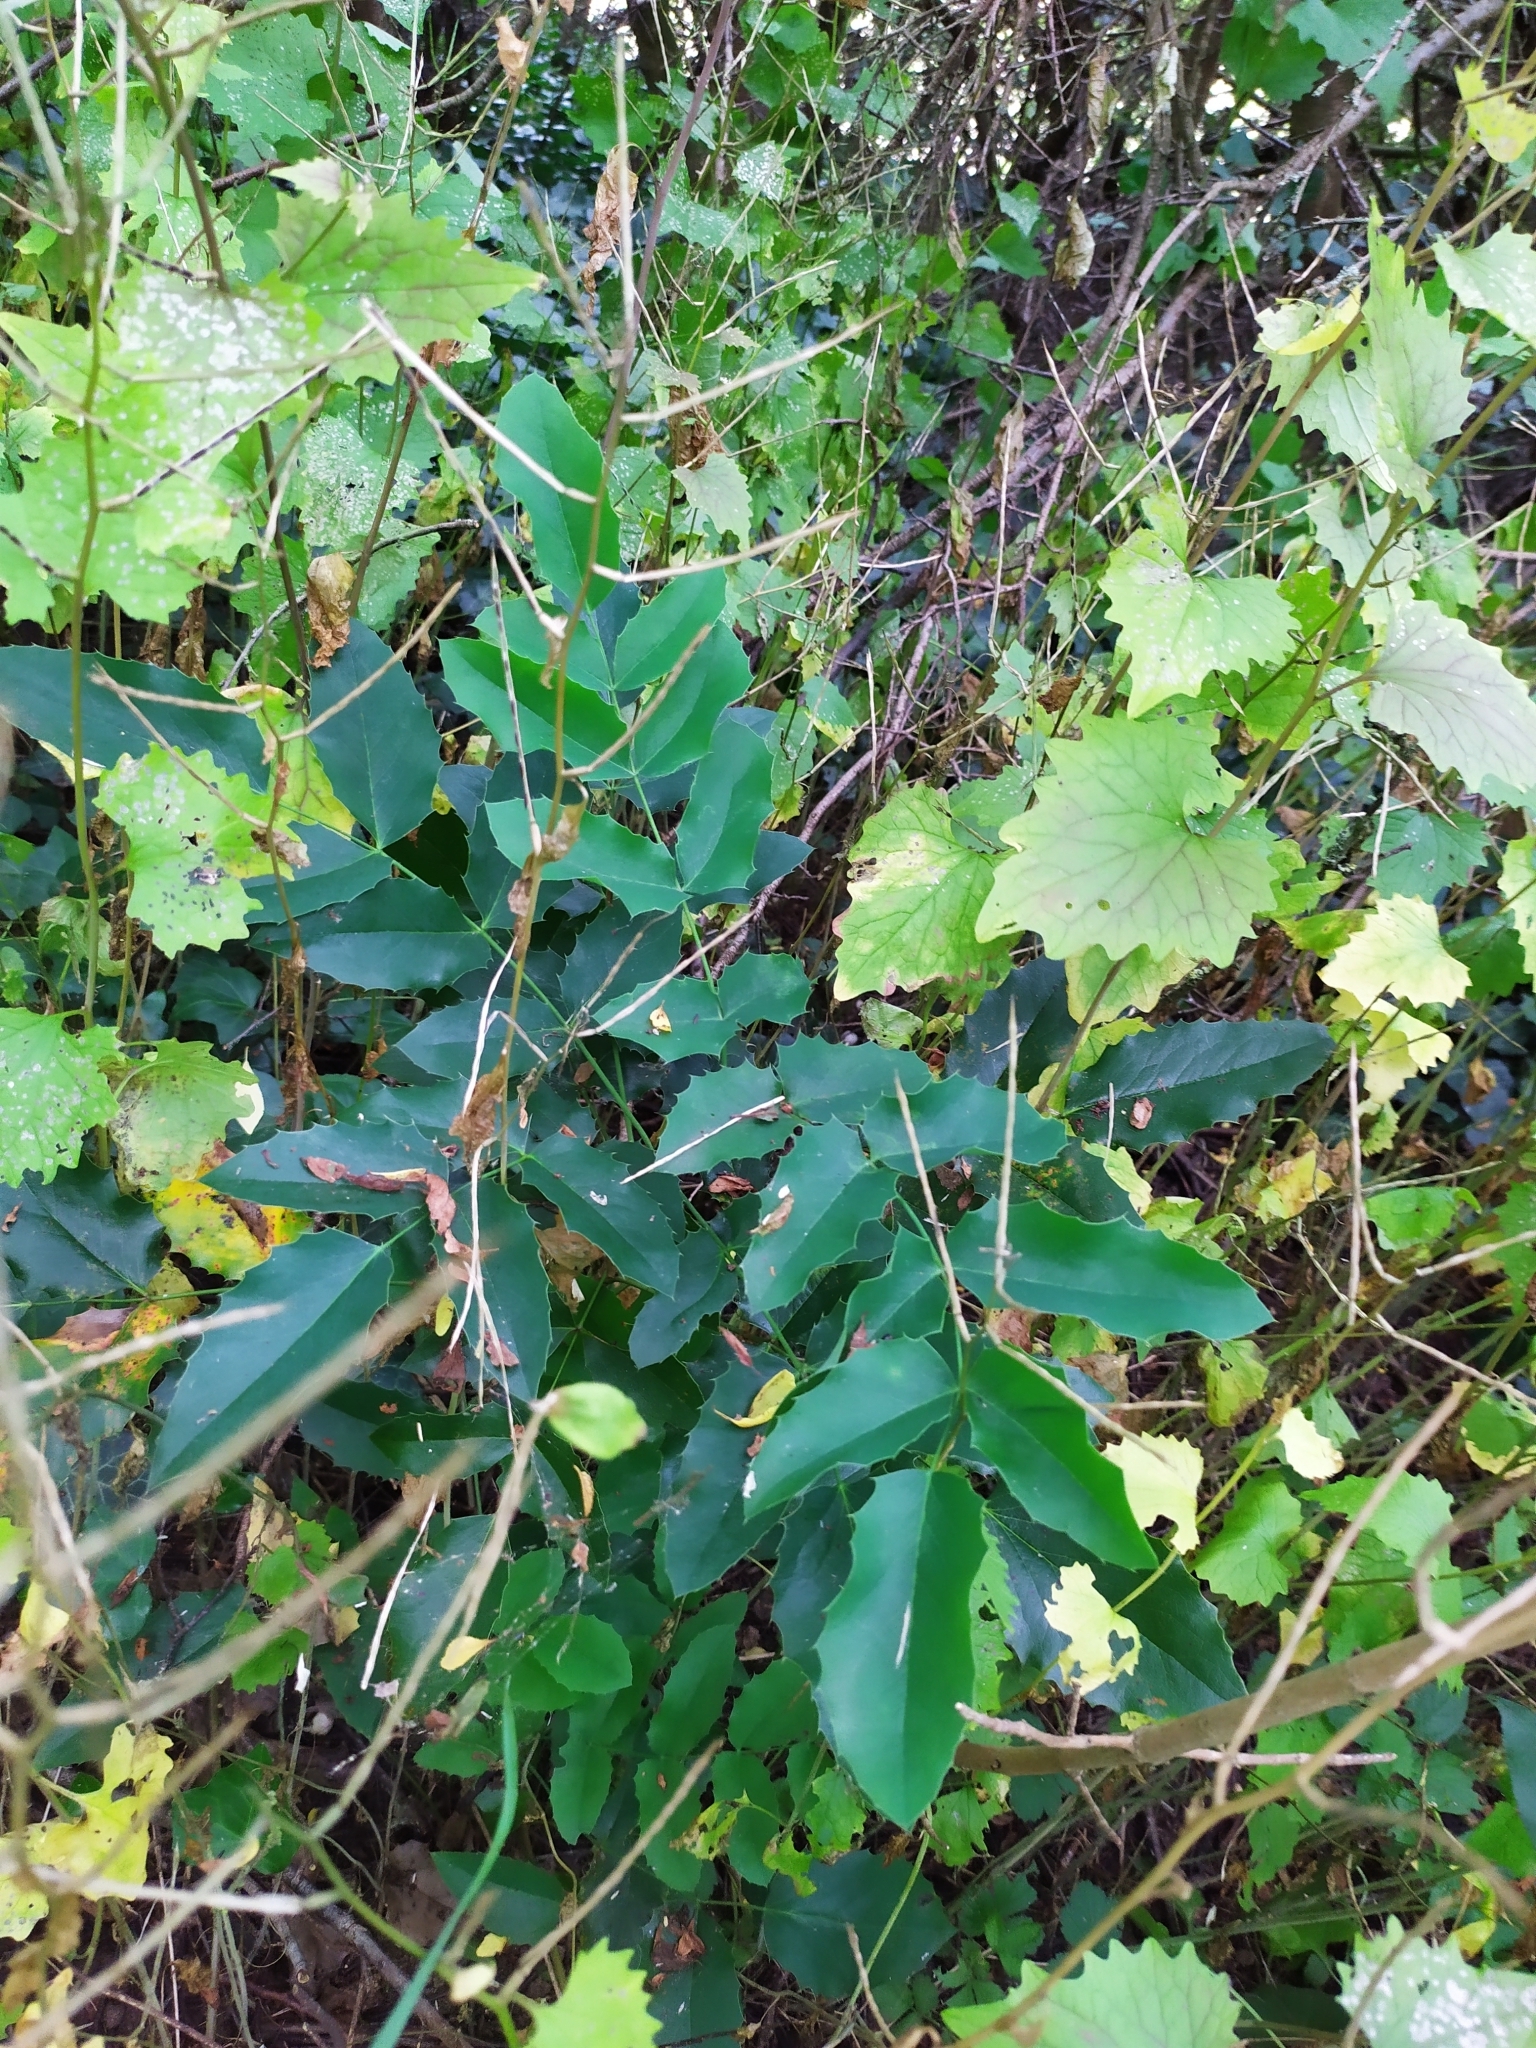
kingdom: Plantae
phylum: Tracheophyta
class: Magnoliopsida
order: Ranunculales
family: Berberidaceae
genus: Mahonia
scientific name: Mahonia aquifolium
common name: Oregon-grape
